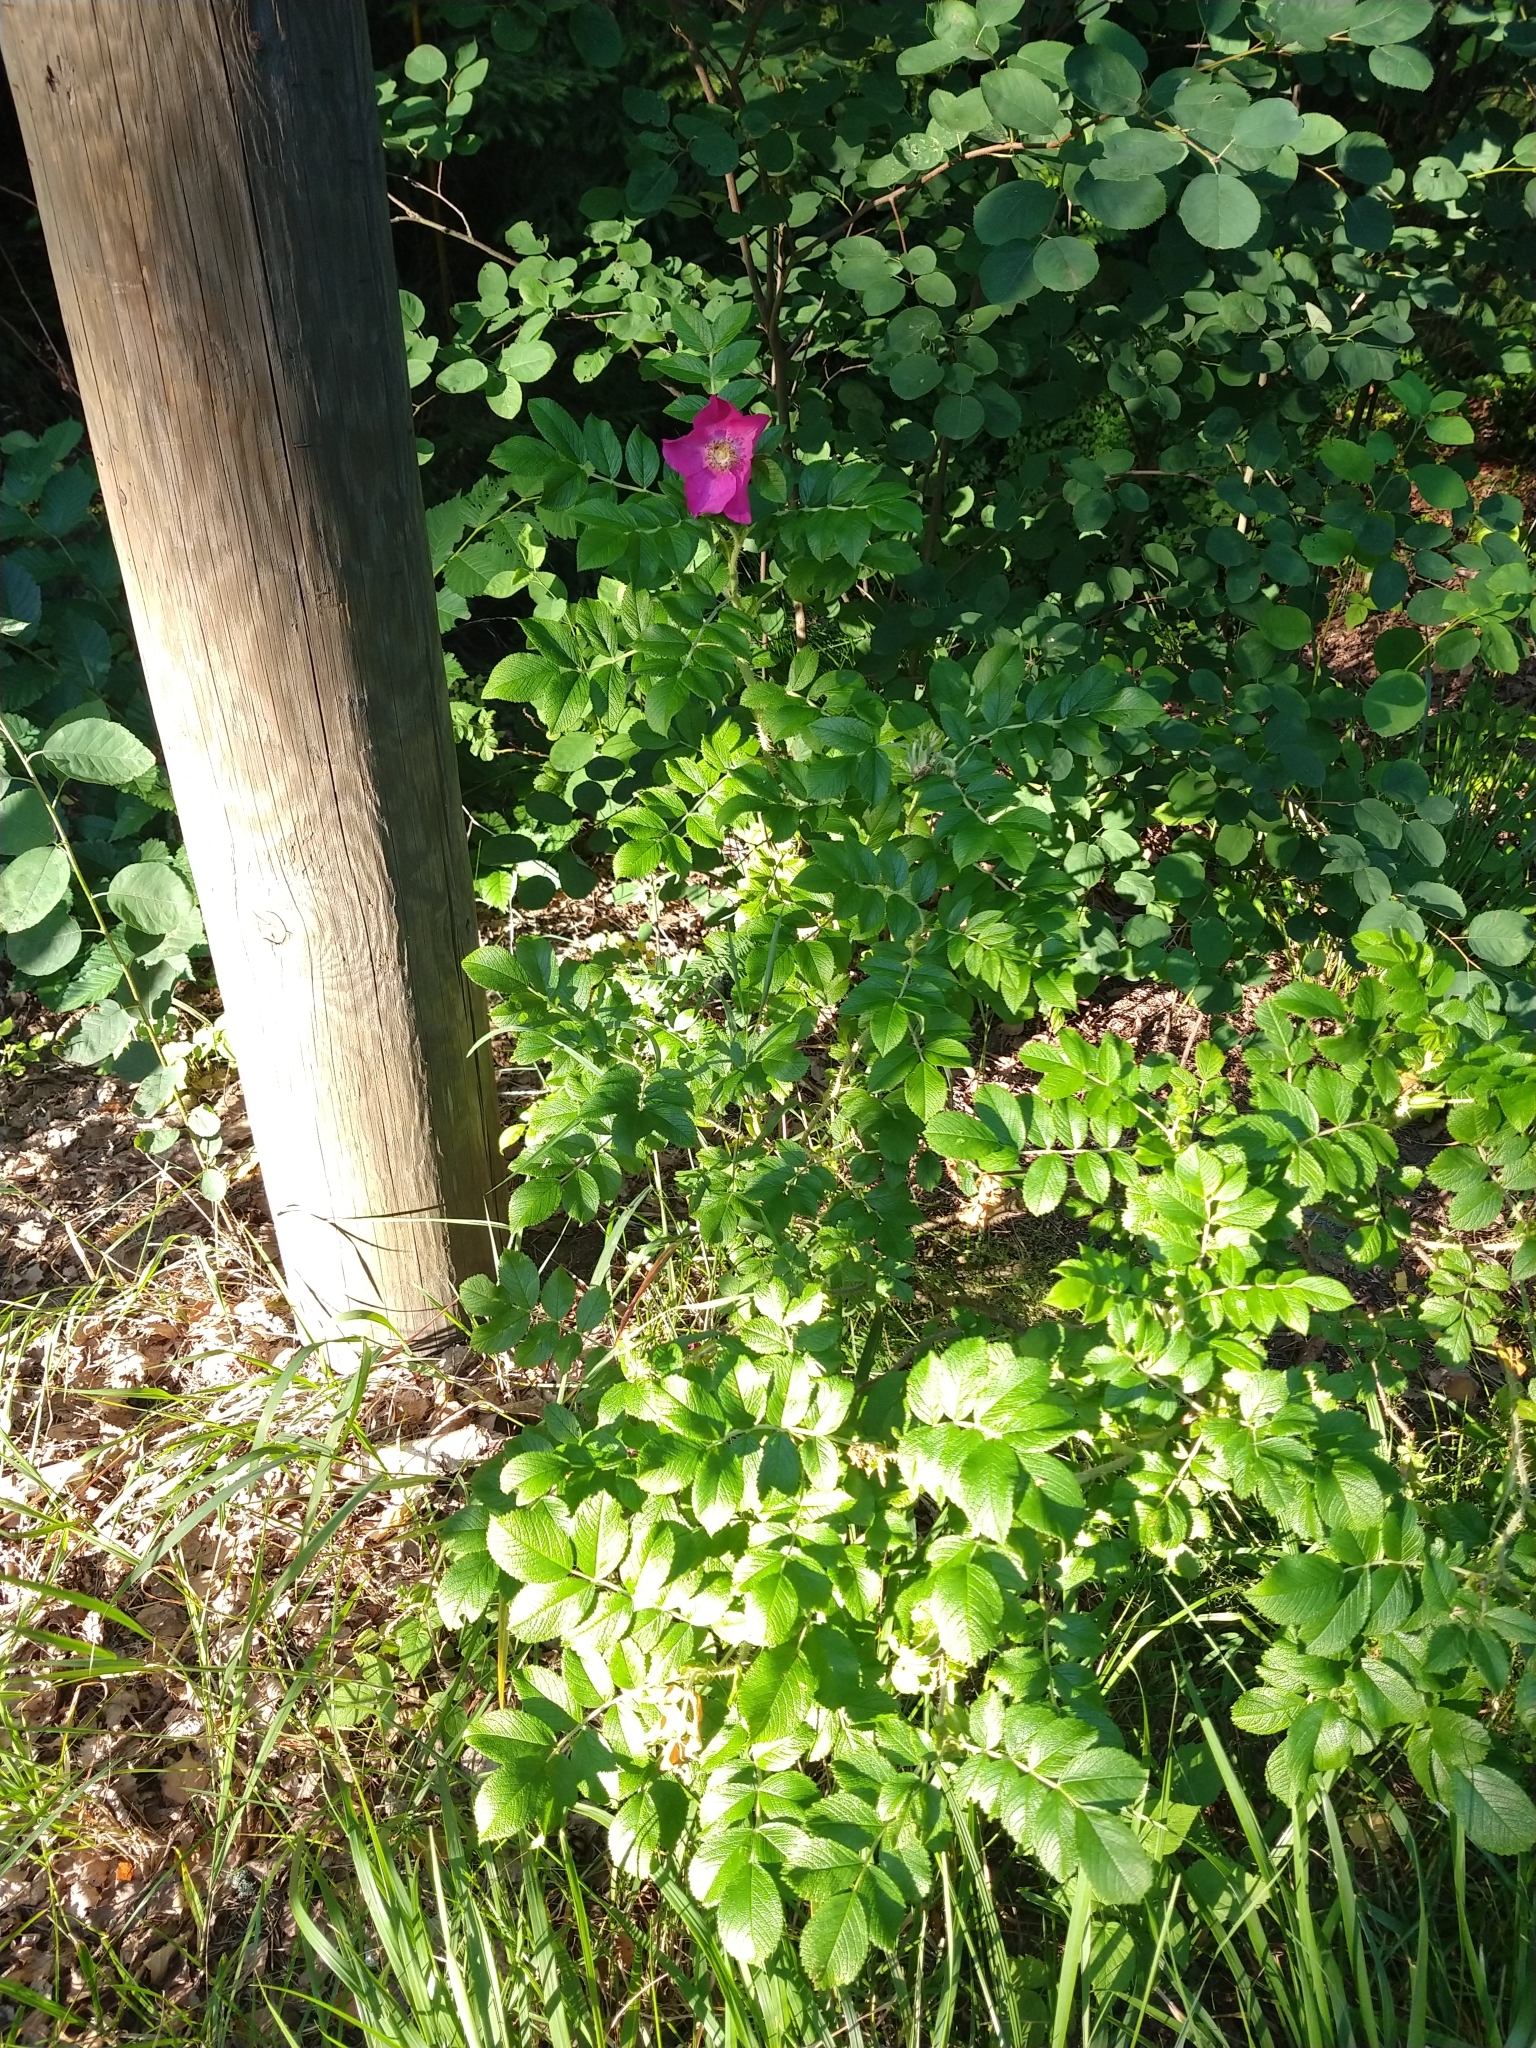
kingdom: Plantae
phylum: Tracheophyta
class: Magnoliopsida
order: Rosales
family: Rosaceae
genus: Rosa
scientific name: Rosa rugosa
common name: Japanese rose
